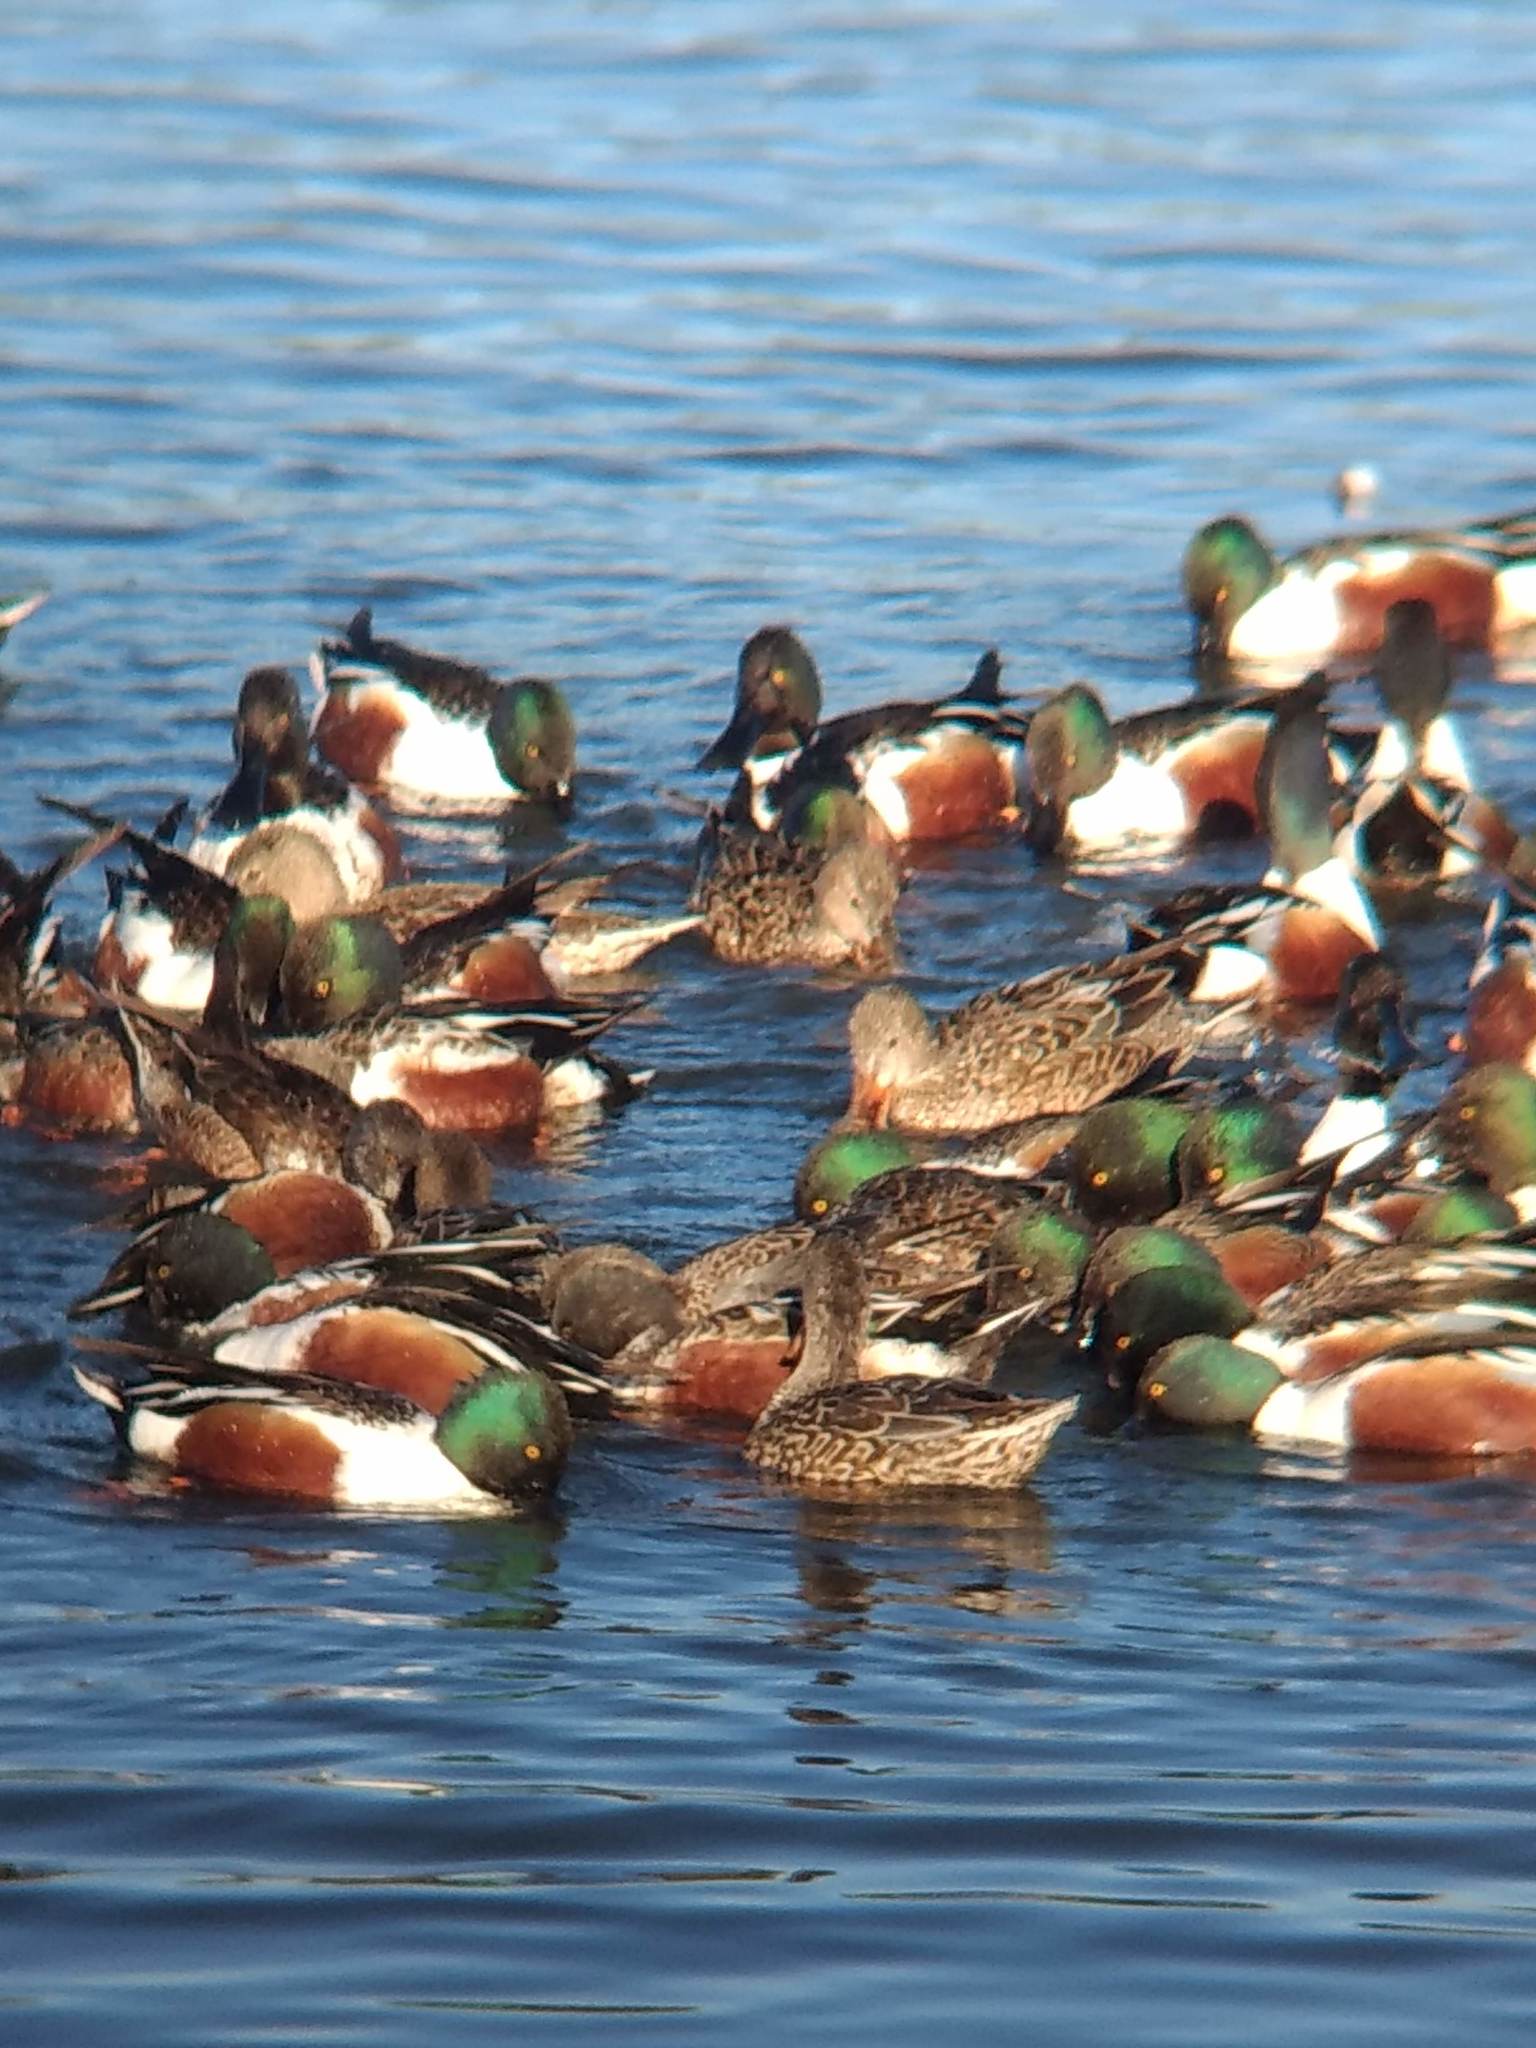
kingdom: Animalia
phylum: Chordata
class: Aves
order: Anseriformes
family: Anatidae
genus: Spatula
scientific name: Spatula clypeata
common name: Northern shoveler
